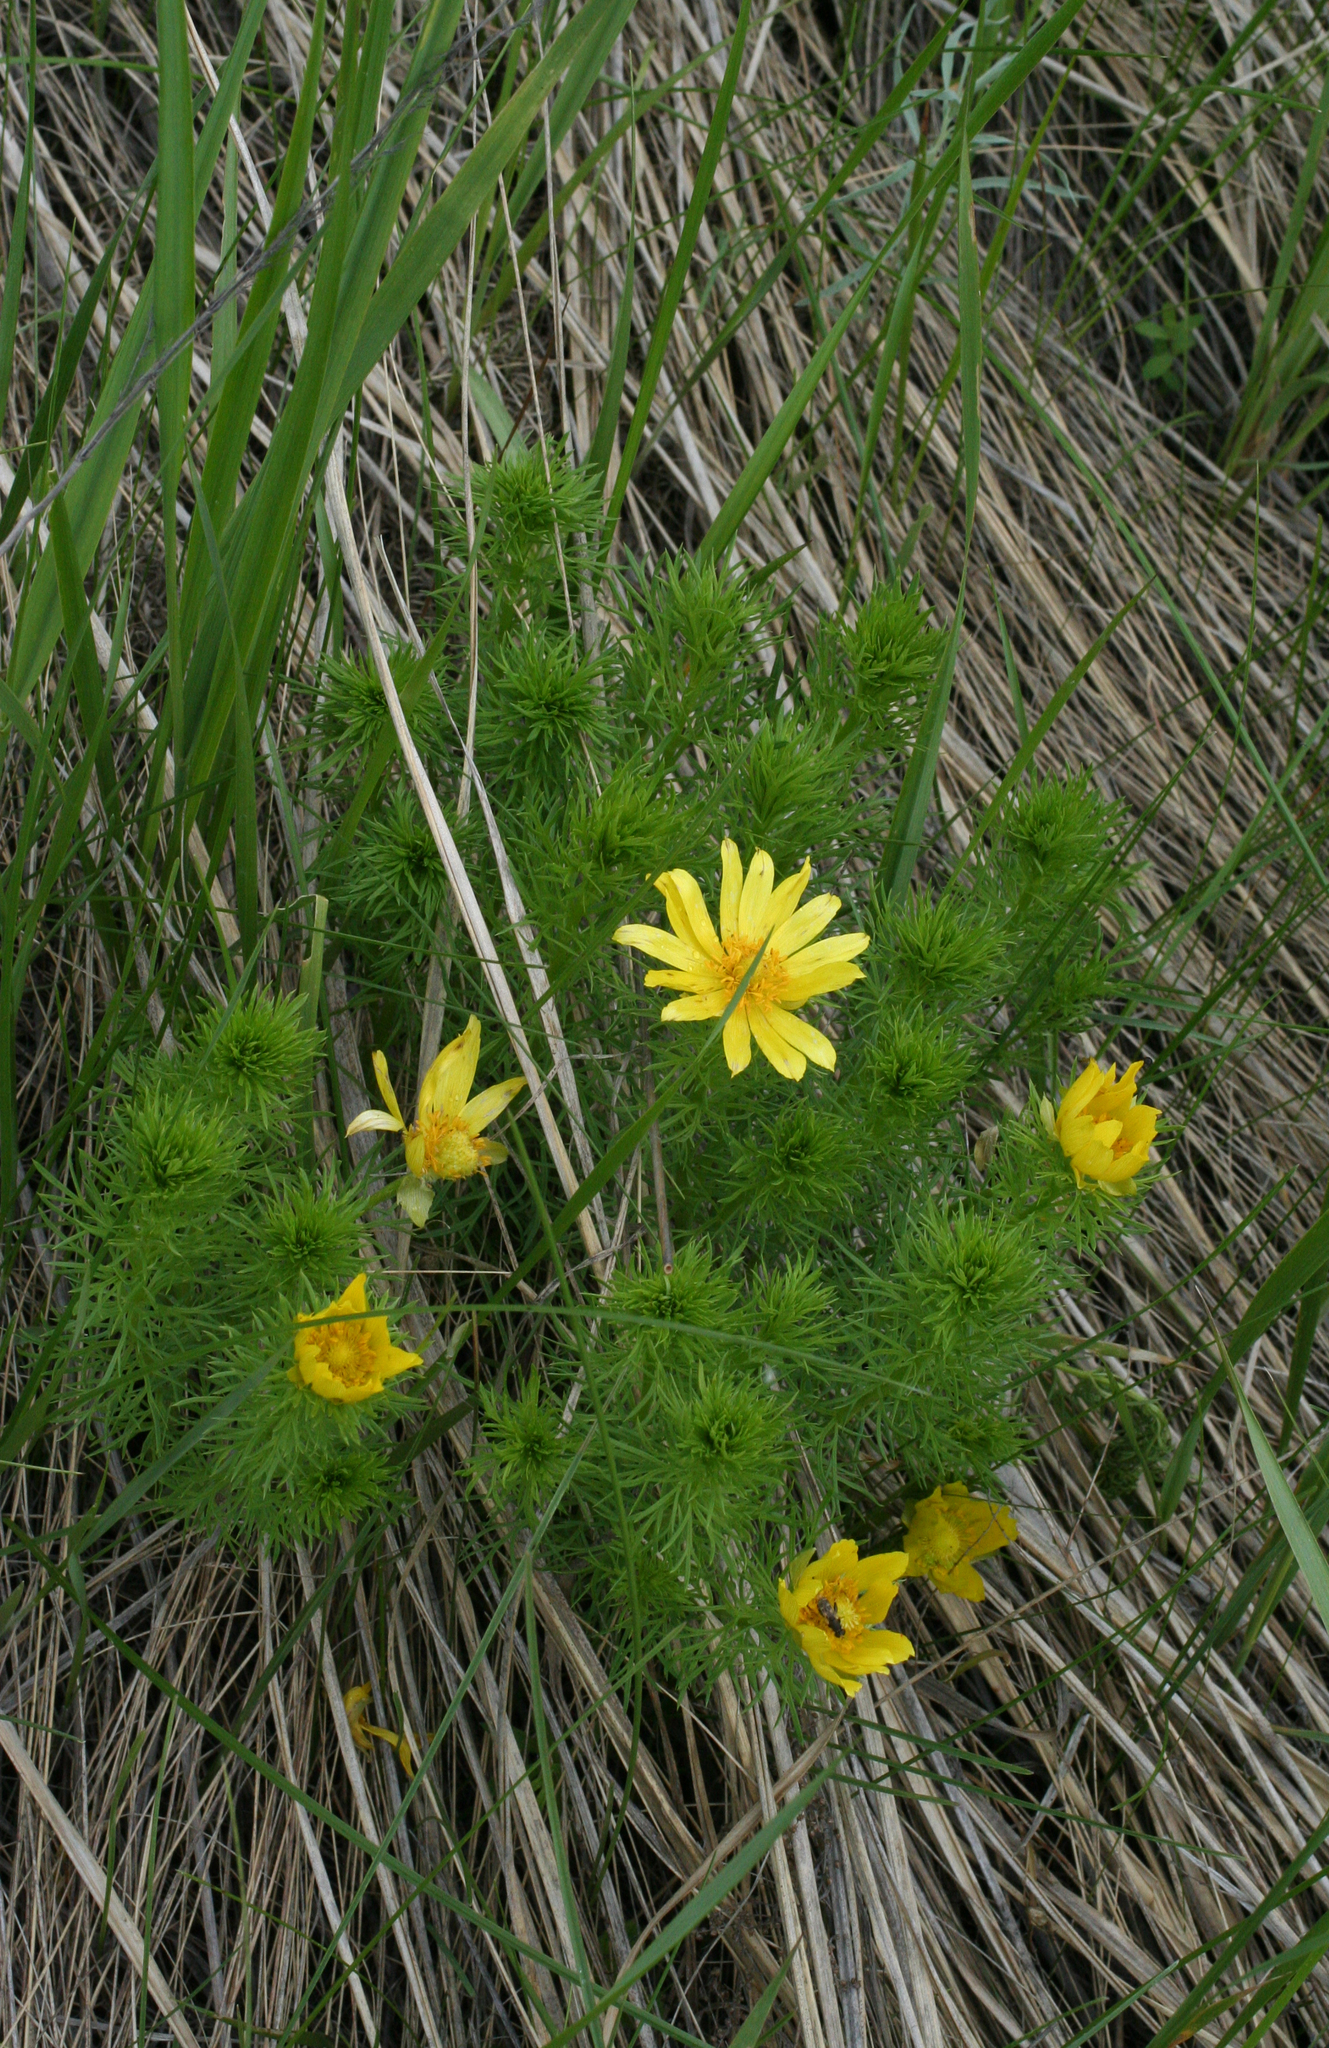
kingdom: Plantae
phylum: Tracheophyta
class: Magnoliopsida
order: Ranunculales
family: Ranunculaceae
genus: Adonis
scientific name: Adonis vernalis
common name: Yellow pheasants-eye
